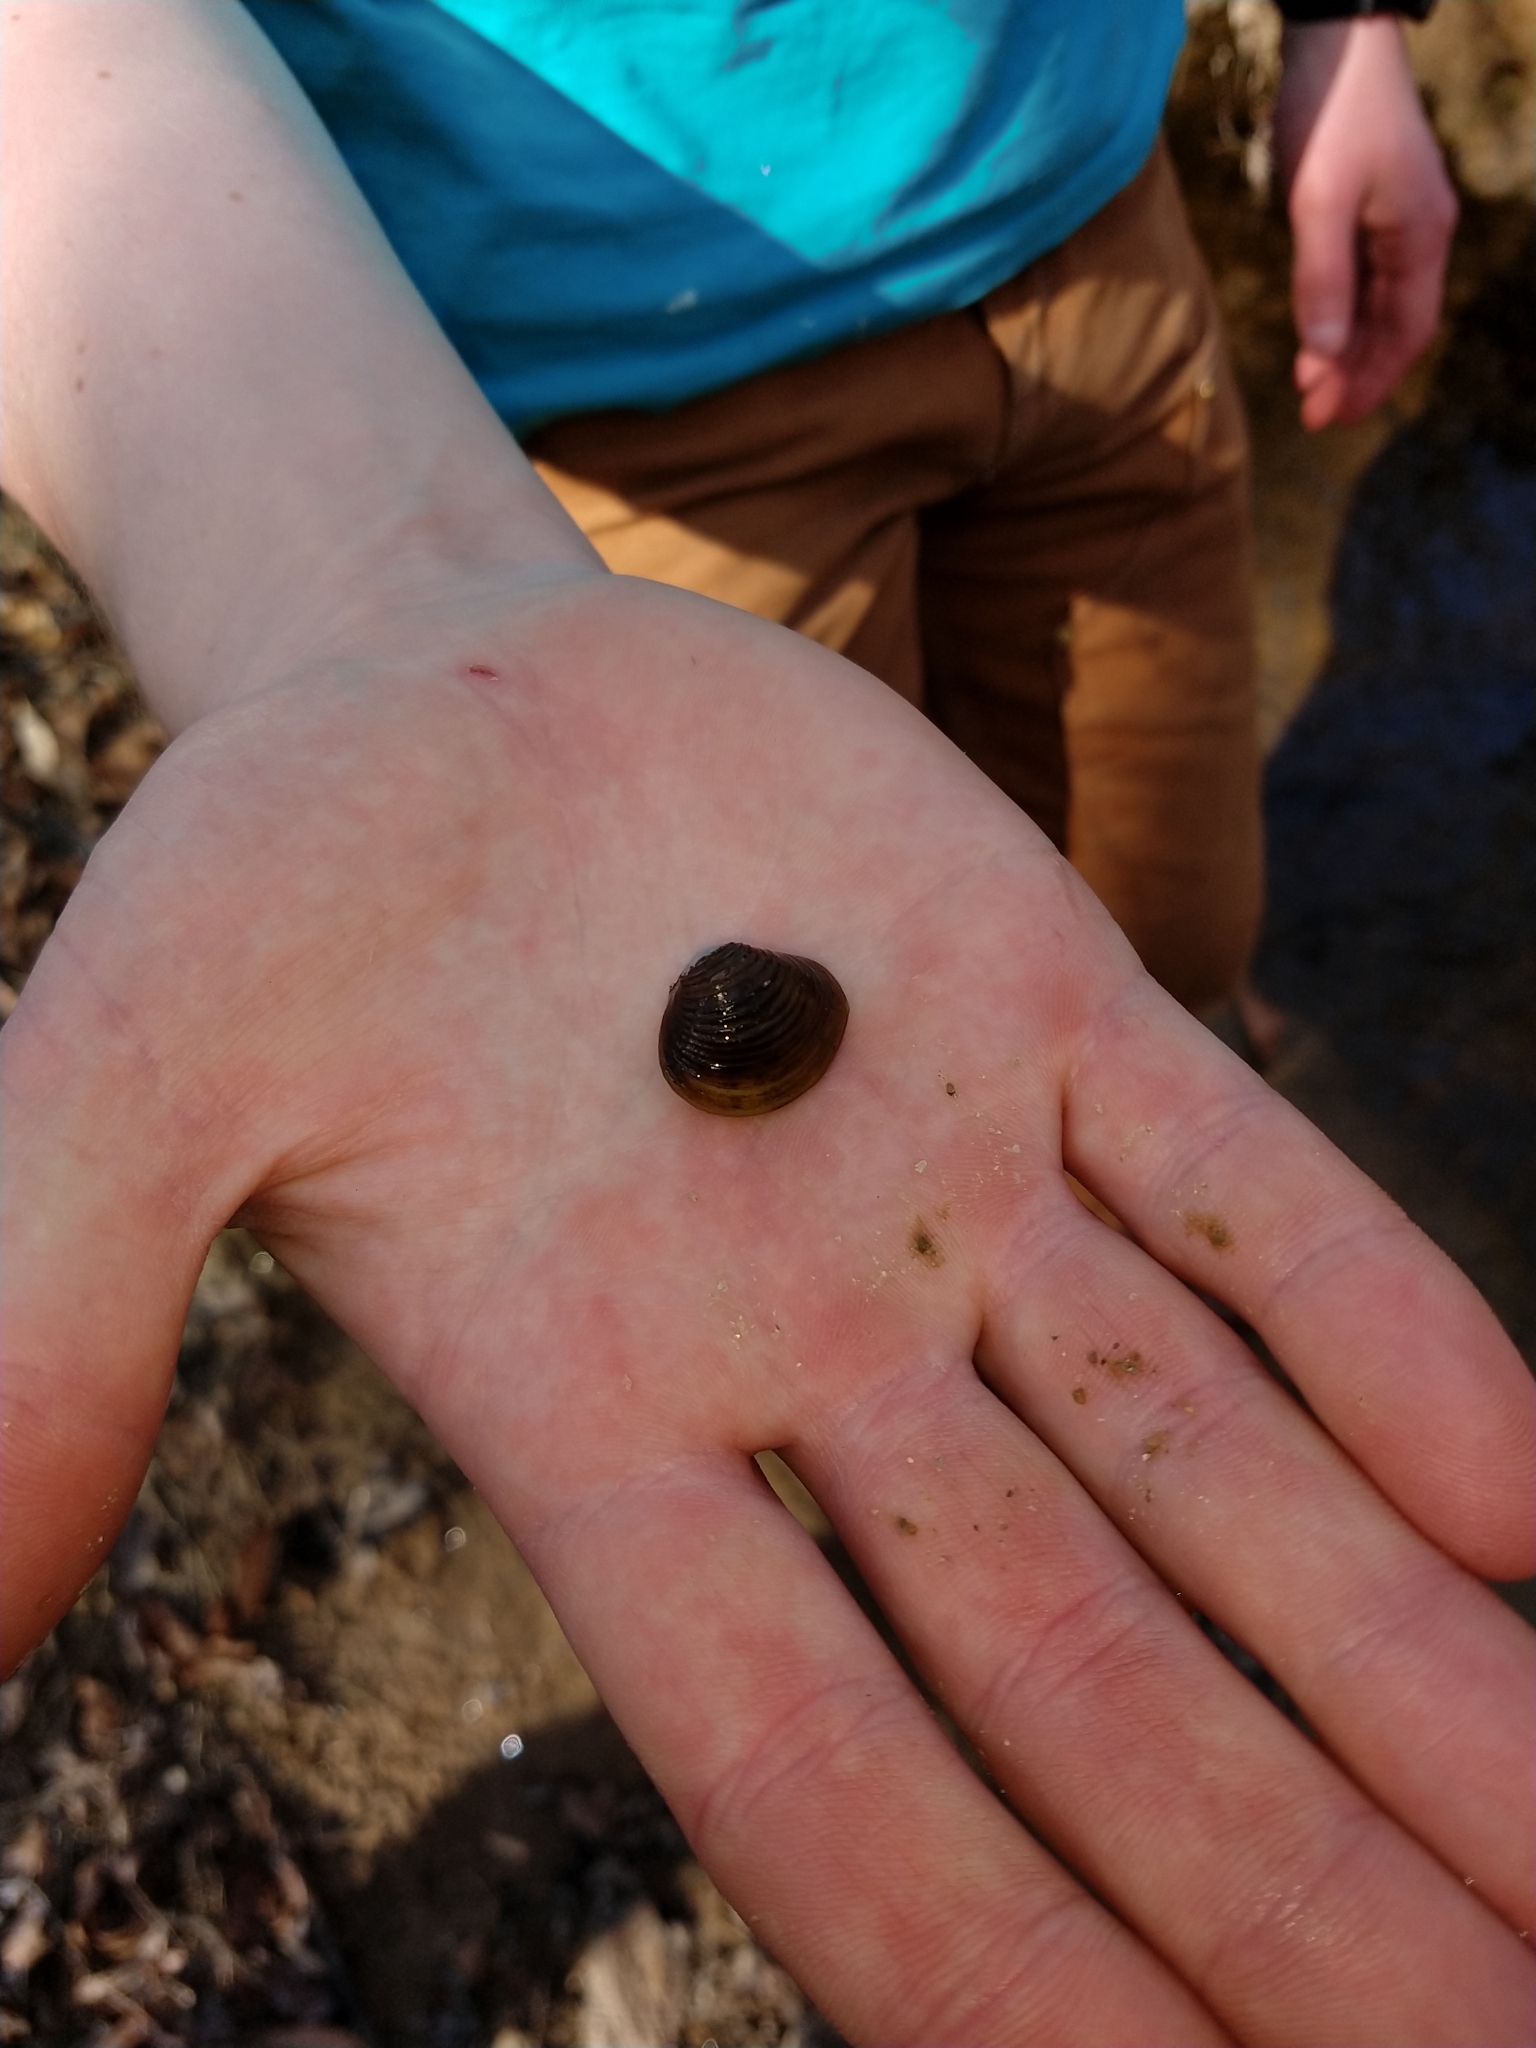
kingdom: Animalia
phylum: Mollusca
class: Bivalvia
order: Venerida
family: Cyrenidae
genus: Corbicula
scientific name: Corbicula fluminea
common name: Asian clam
